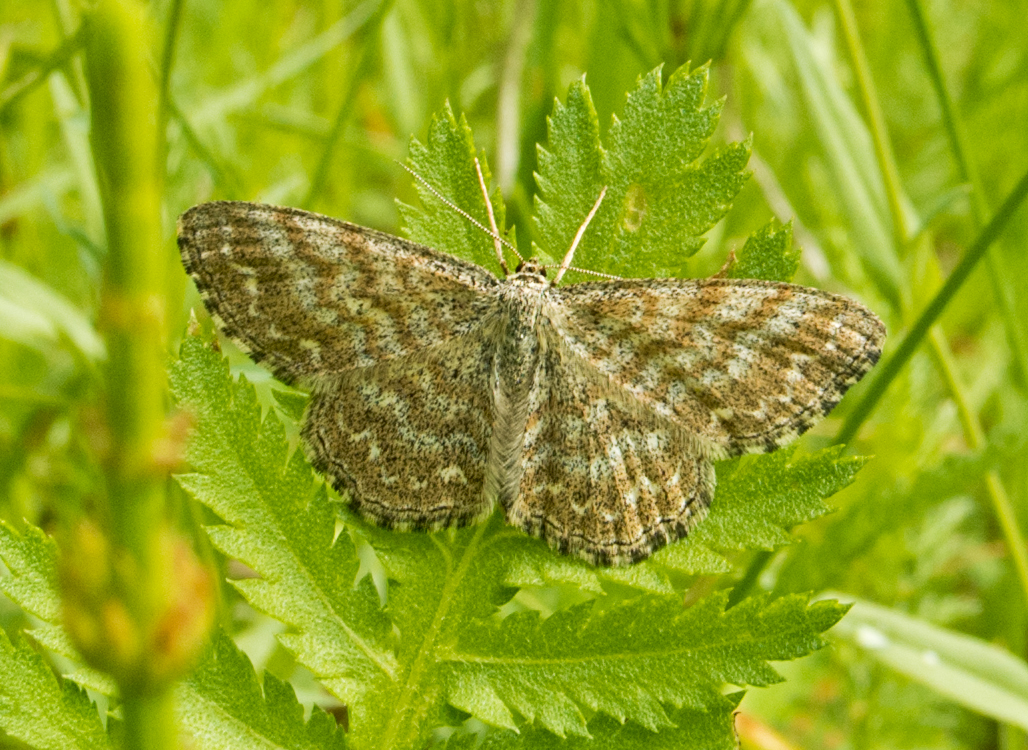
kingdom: Animalia
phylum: Arthropoda
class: Insecta
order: Lepidoptera
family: Geometridae
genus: Scopula
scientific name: Scopula immorata
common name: Lewes wave
